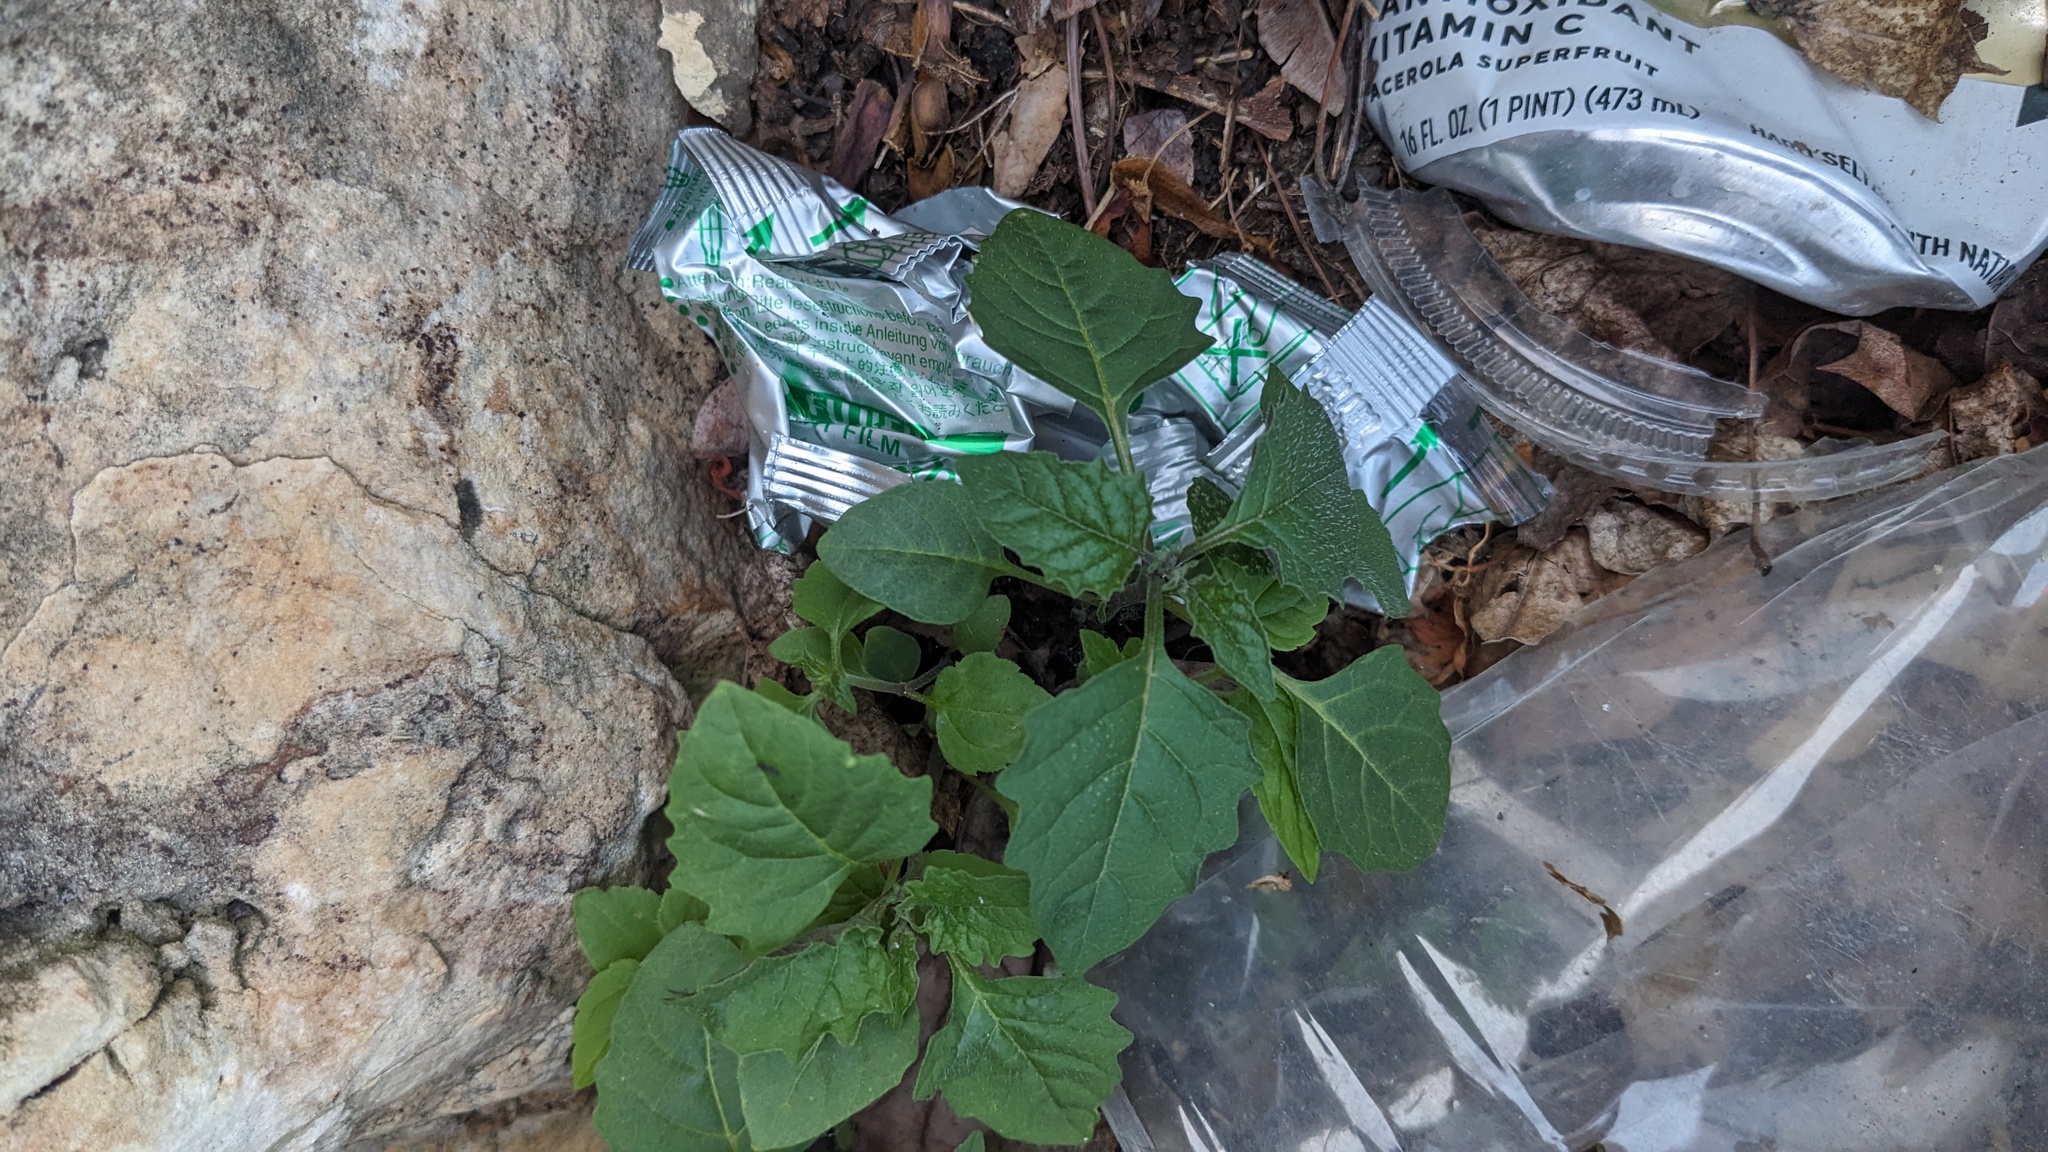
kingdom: Plantae
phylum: Tracheophyta
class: Magnoliopsida
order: Solanales
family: Solanaceae
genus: Solanum
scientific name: Solanum emulans
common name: Eastern black nightshade
